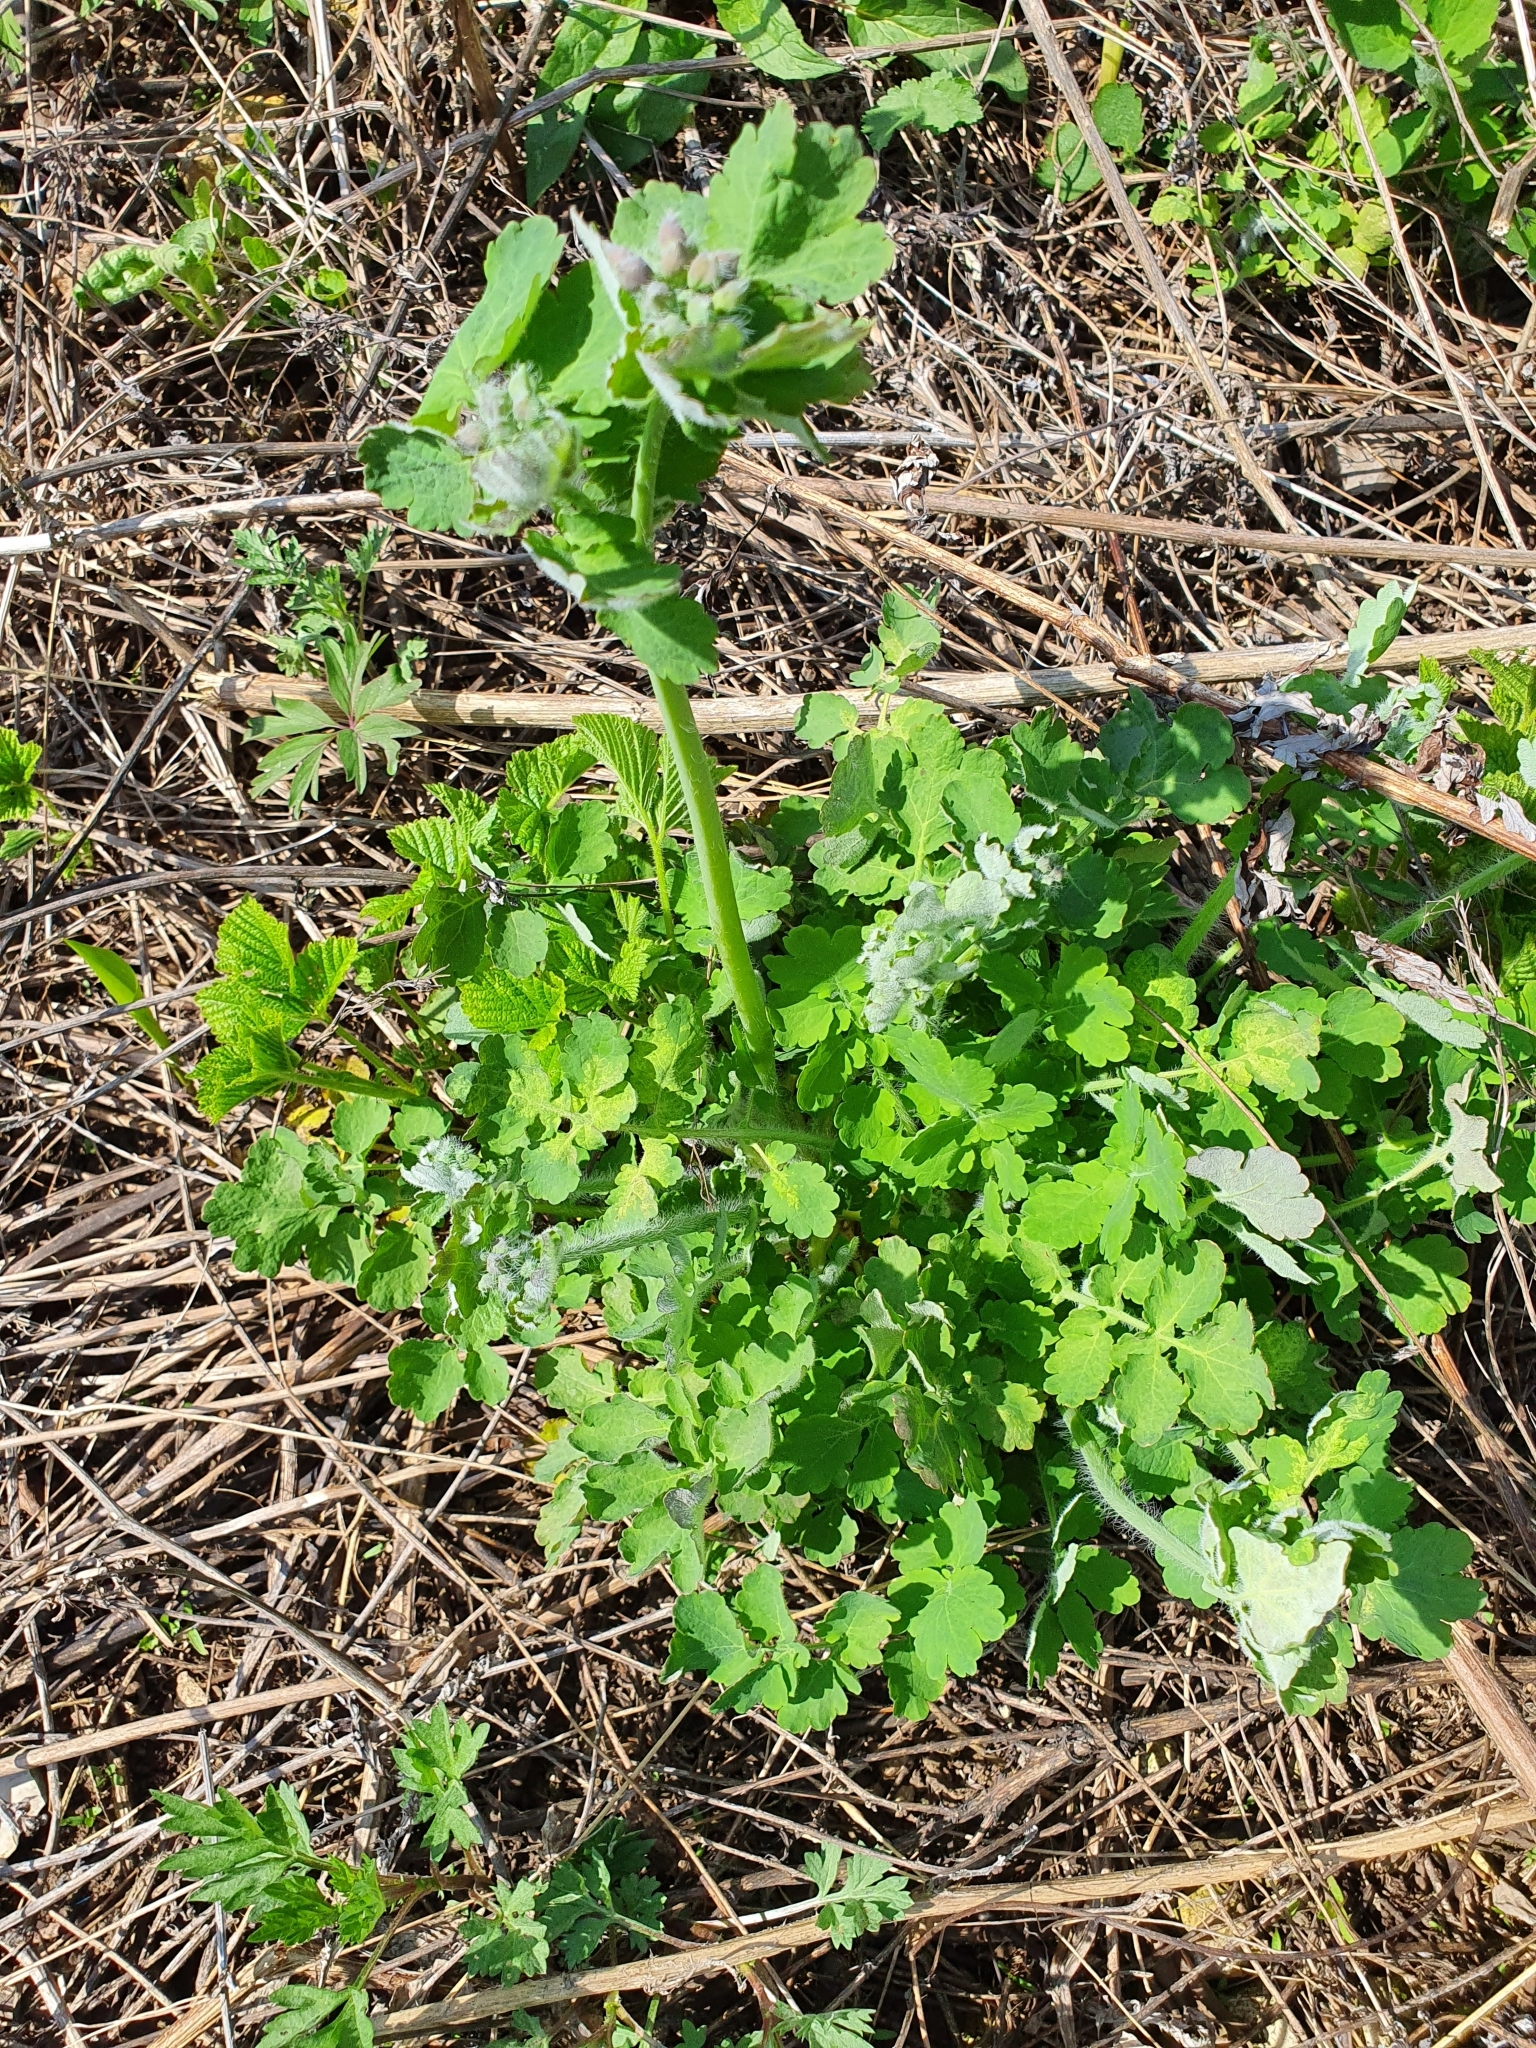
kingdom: Plantae
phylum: Tracheophyta
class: Magnoliopsida
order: Ranunculales
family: Papaveraceae
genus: Chelidonium
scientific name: Chelidonium majus
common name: Greater celandine
